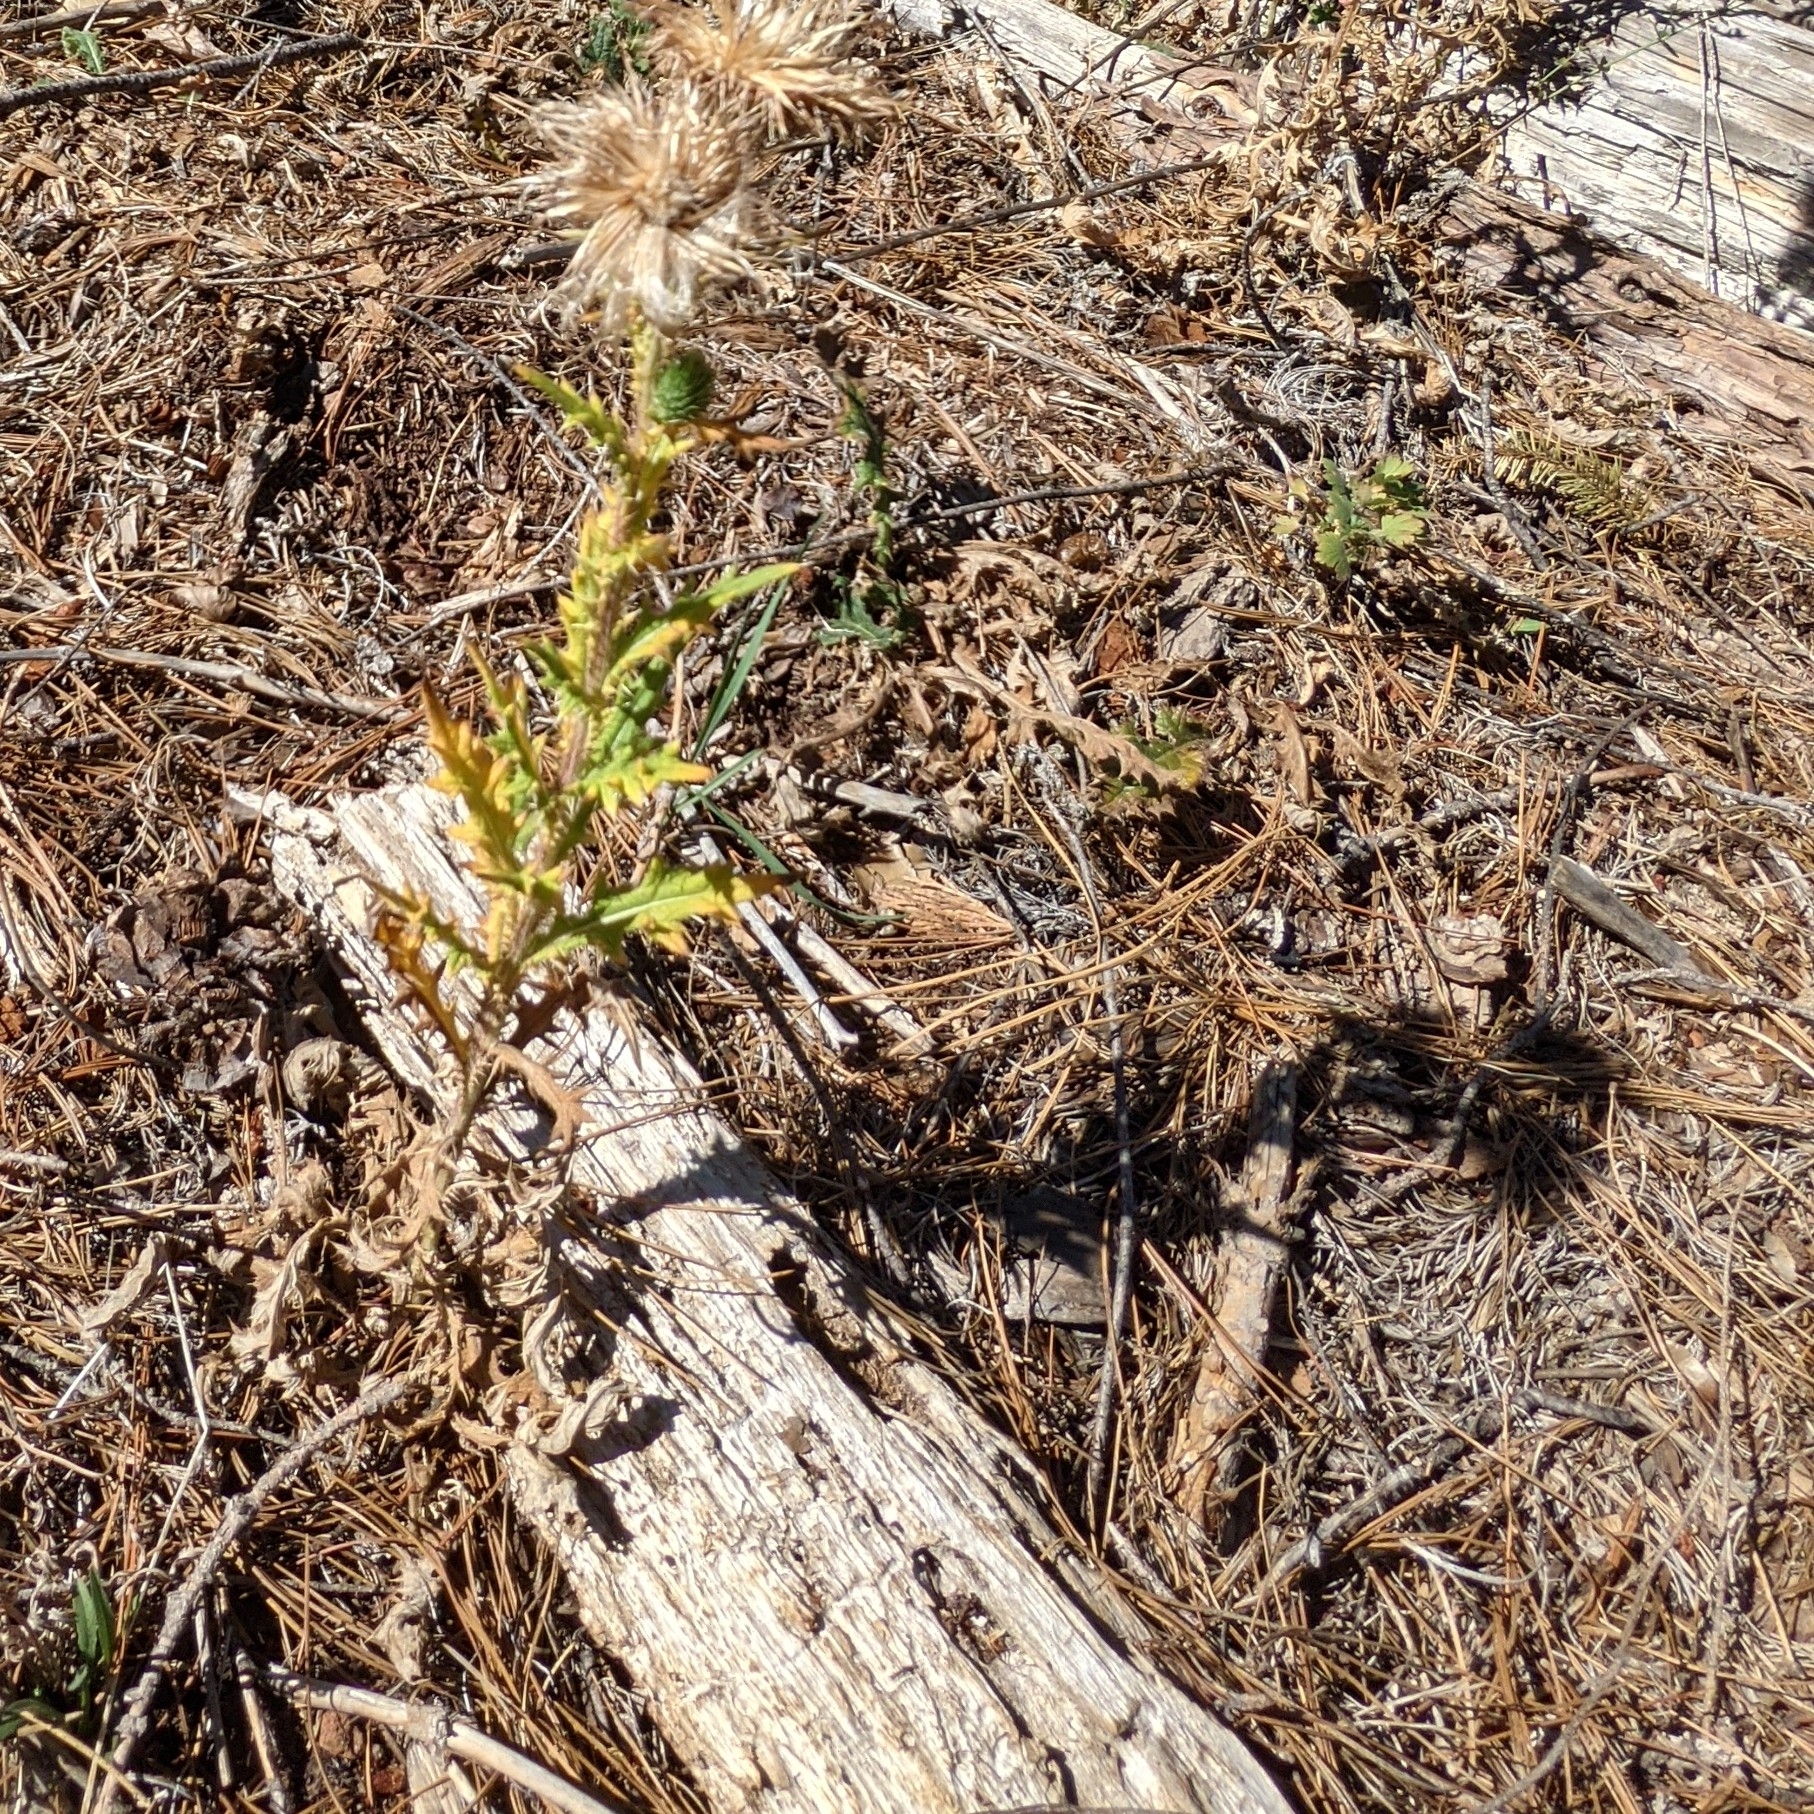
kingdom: Plantae
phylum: Tracheophyta
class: Magnoliopsida
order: Asterales
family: Asteraceae
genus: Cirsium
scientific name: Cirsium vulgare
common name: Bull thistle
